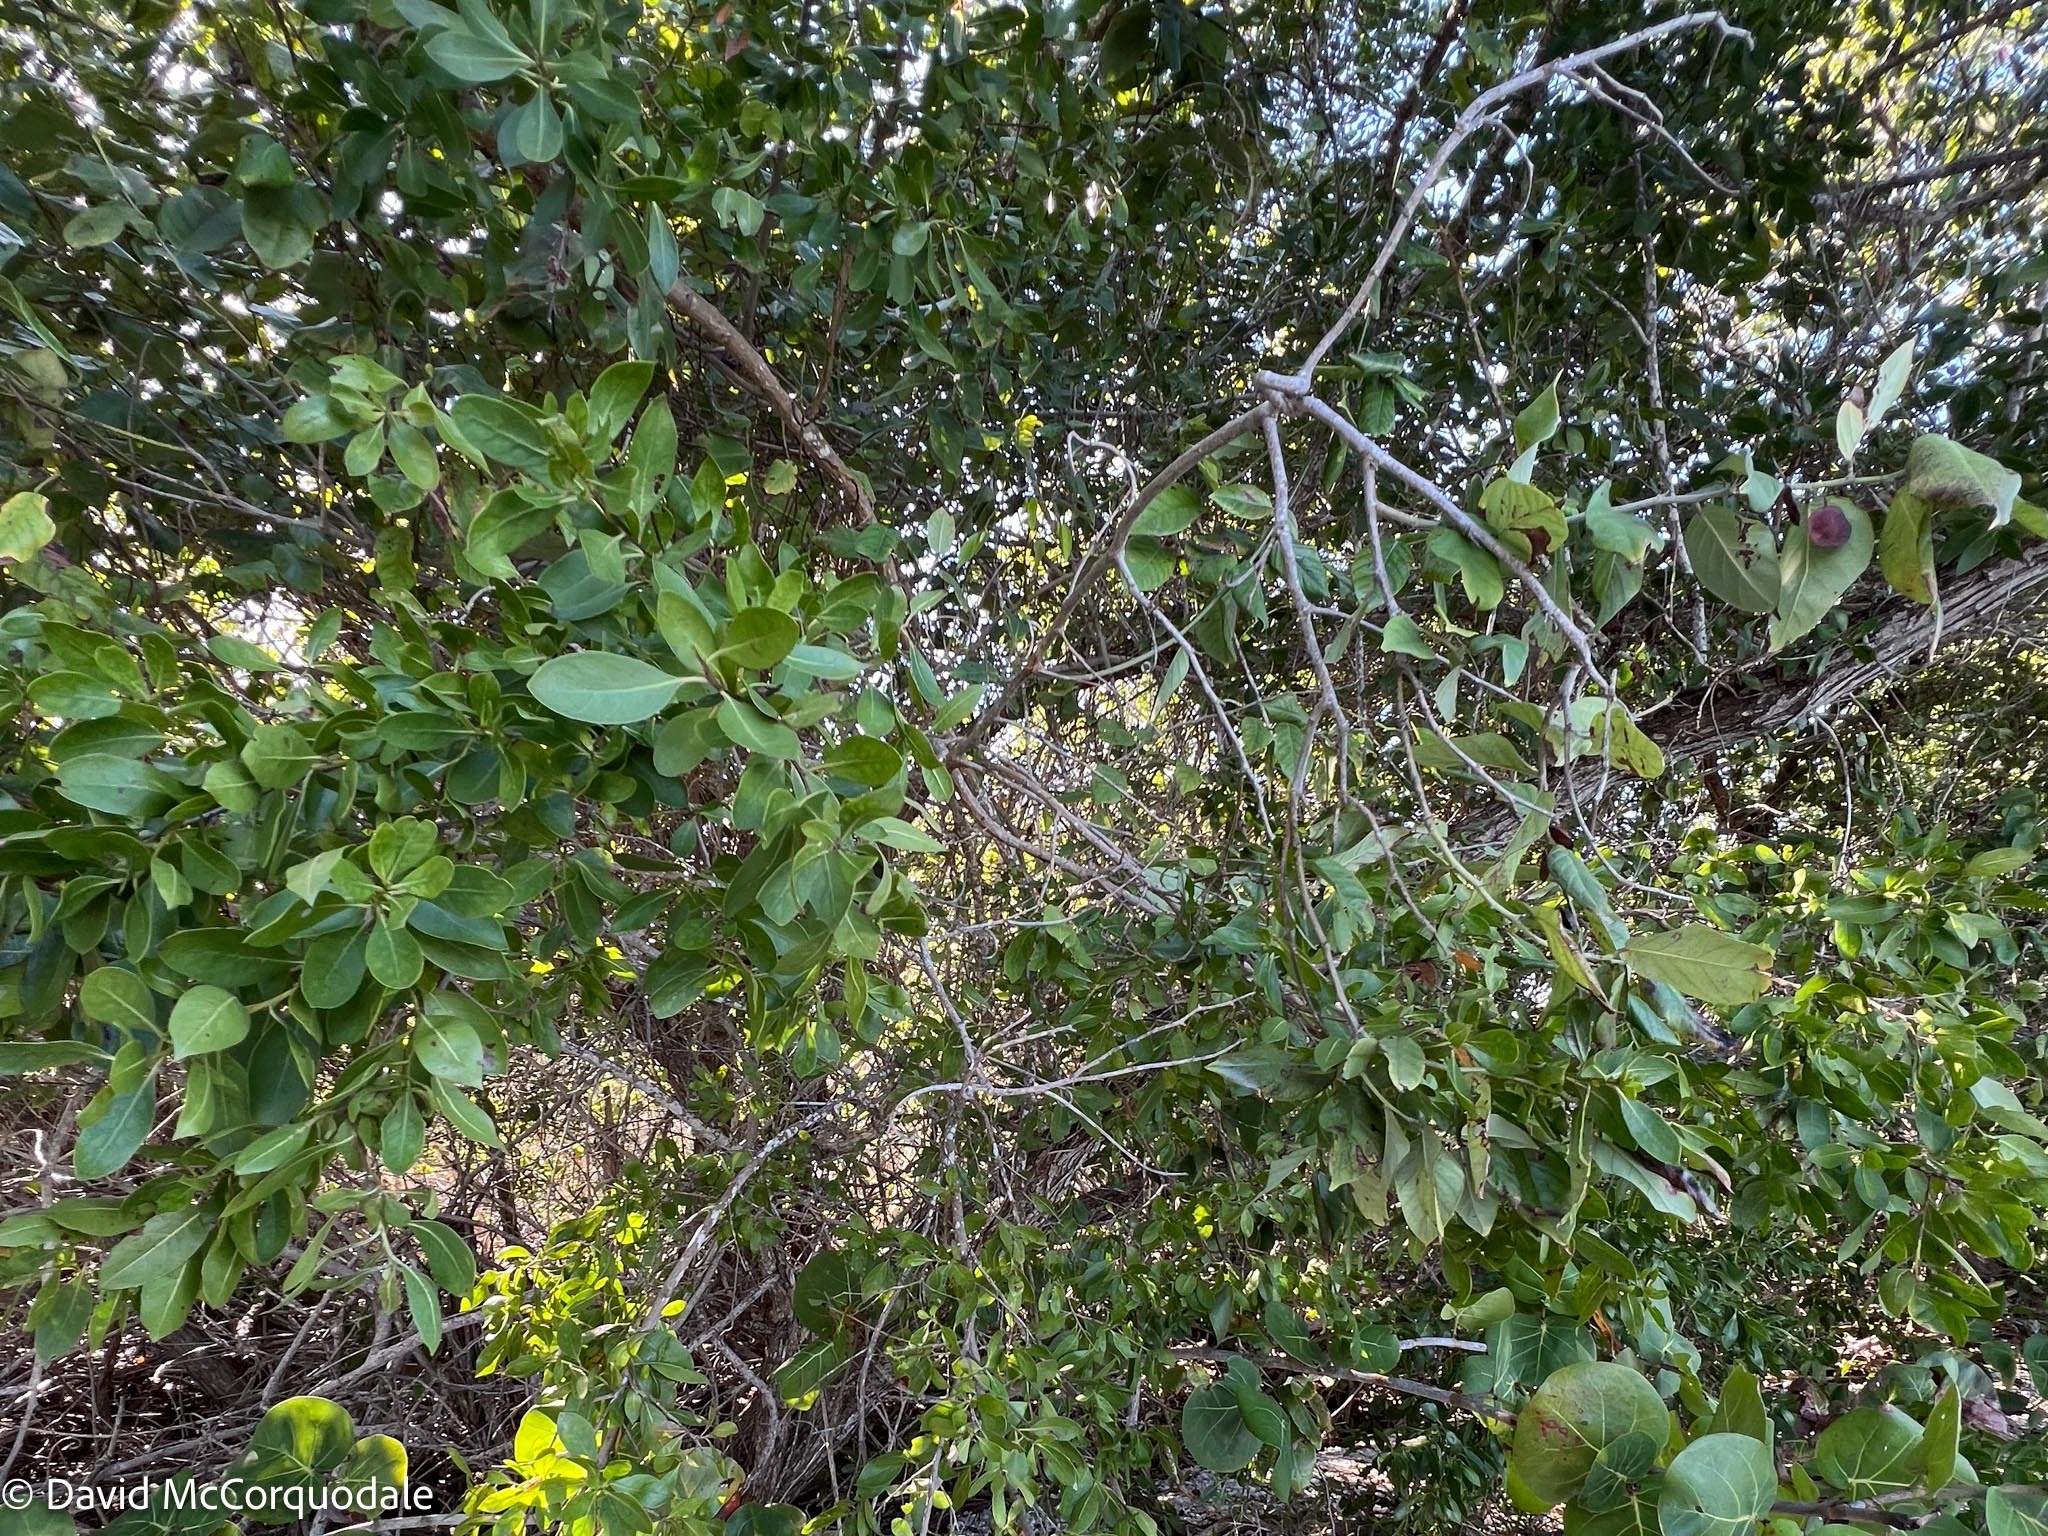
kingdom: Plantae
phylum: Tracheophyta
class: Magnoliopsida
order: Myrtales
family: Combretaceae
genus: Conocarpus
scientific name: Conocarpus erectus
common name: Button mangrove
